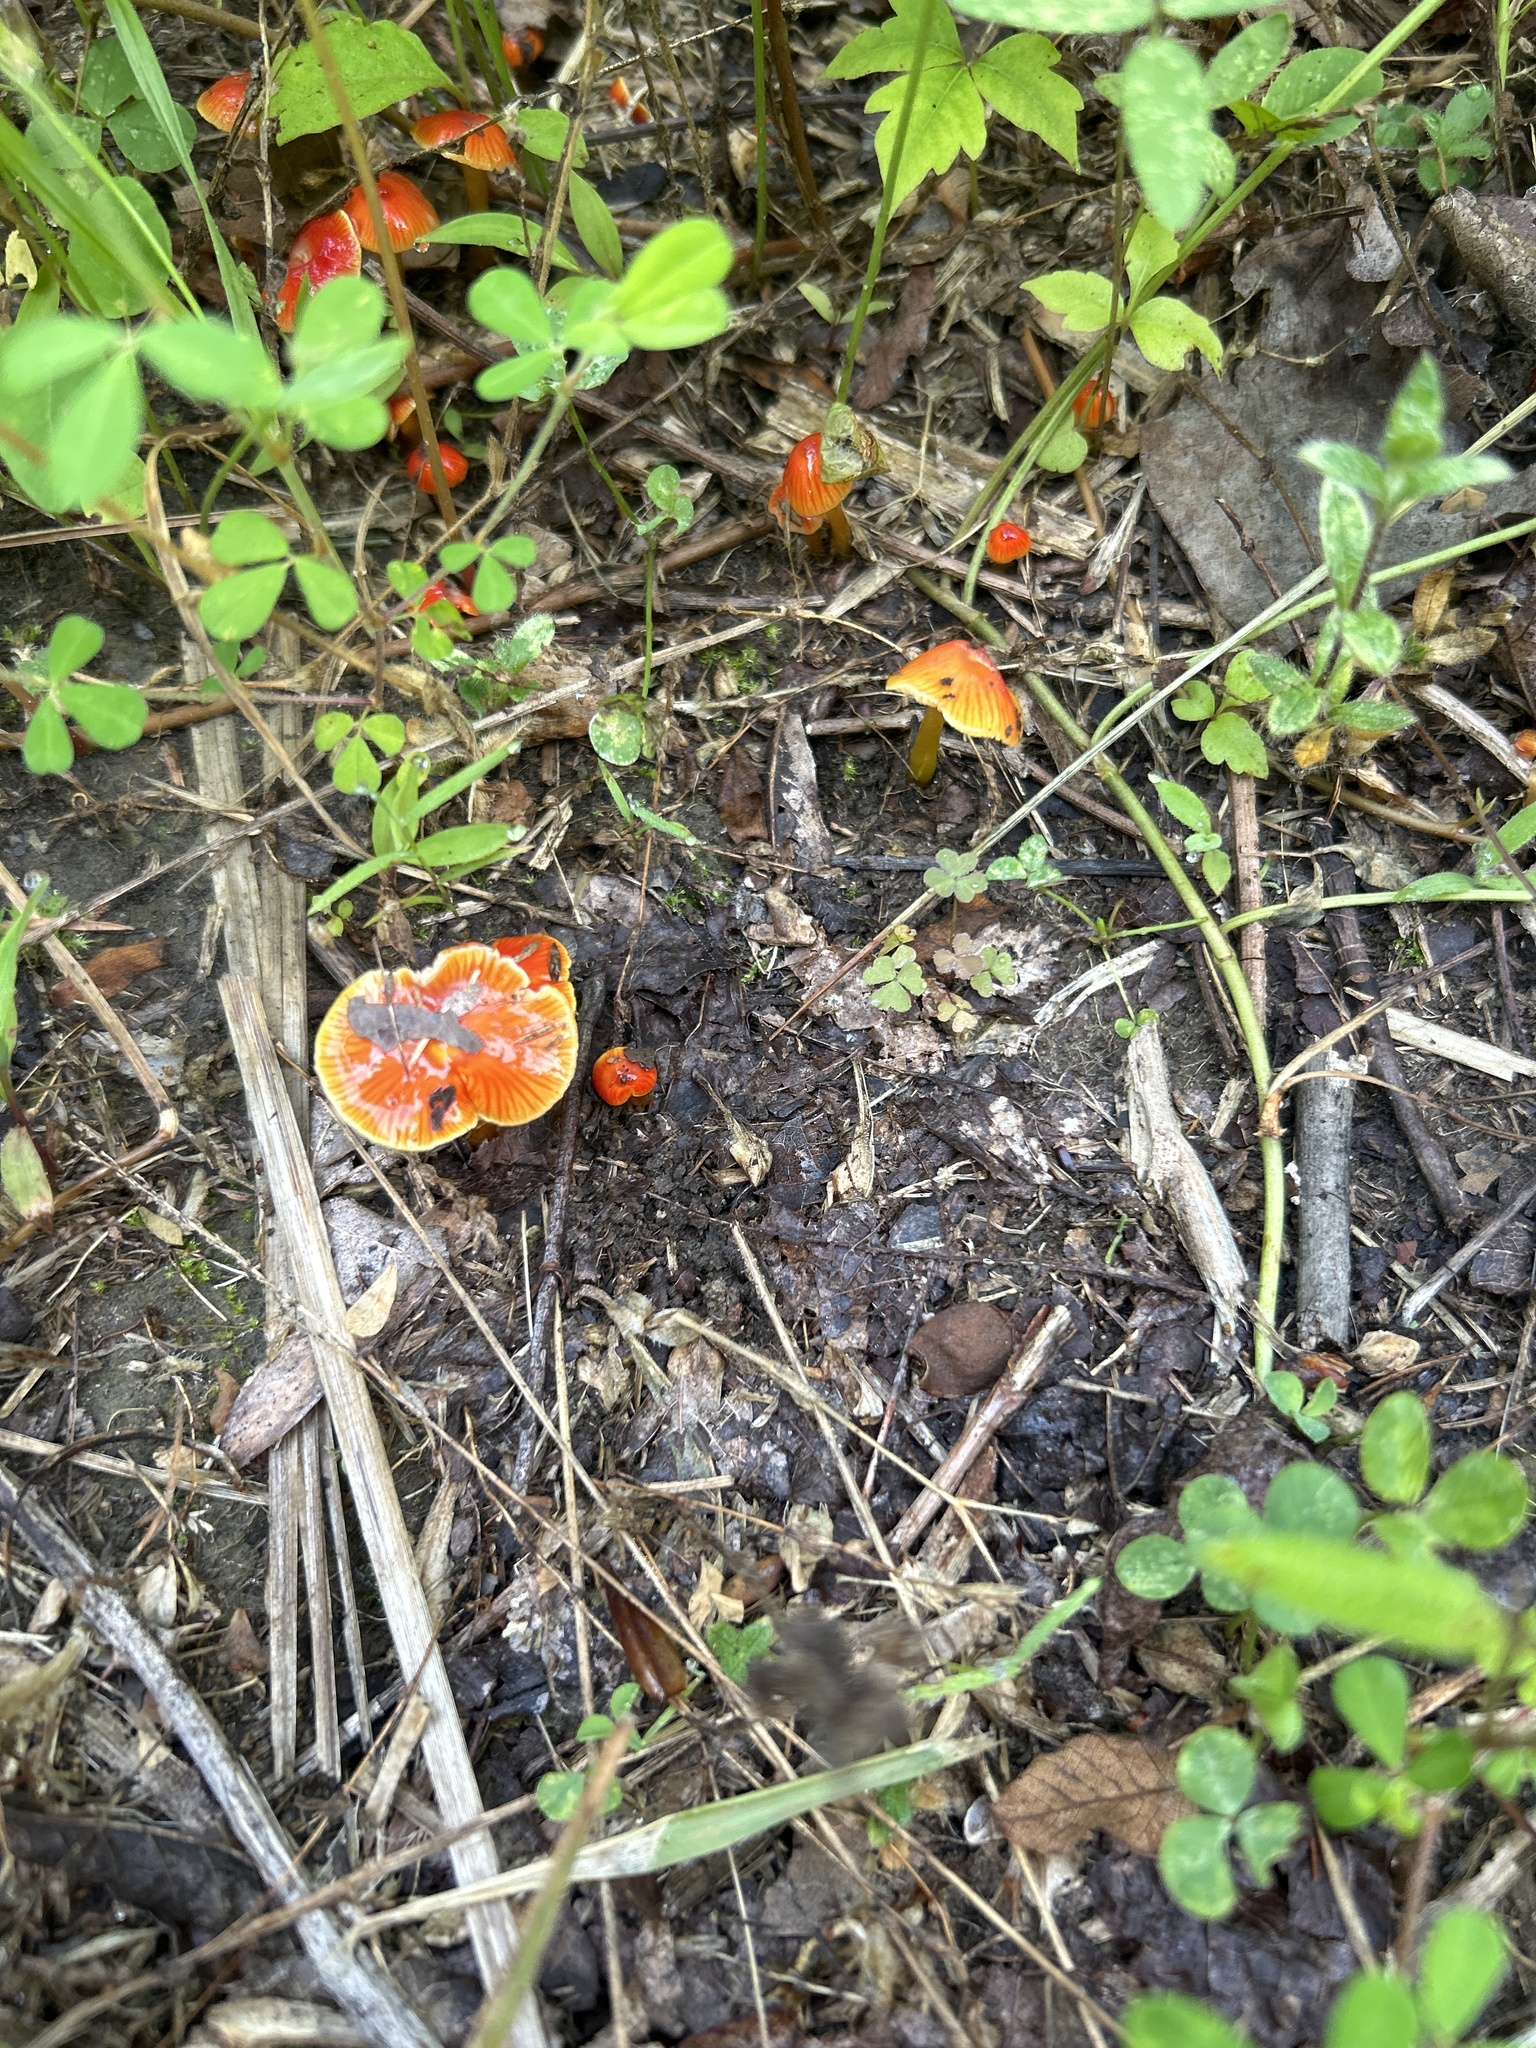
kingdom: Fungi
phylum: Basidiomycota
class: Agaricomycetes
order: Agaricales
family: Hygrophoraceae
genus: Hygrocybe
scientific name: Hygrocybe coccinea
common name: Scarlet hood
